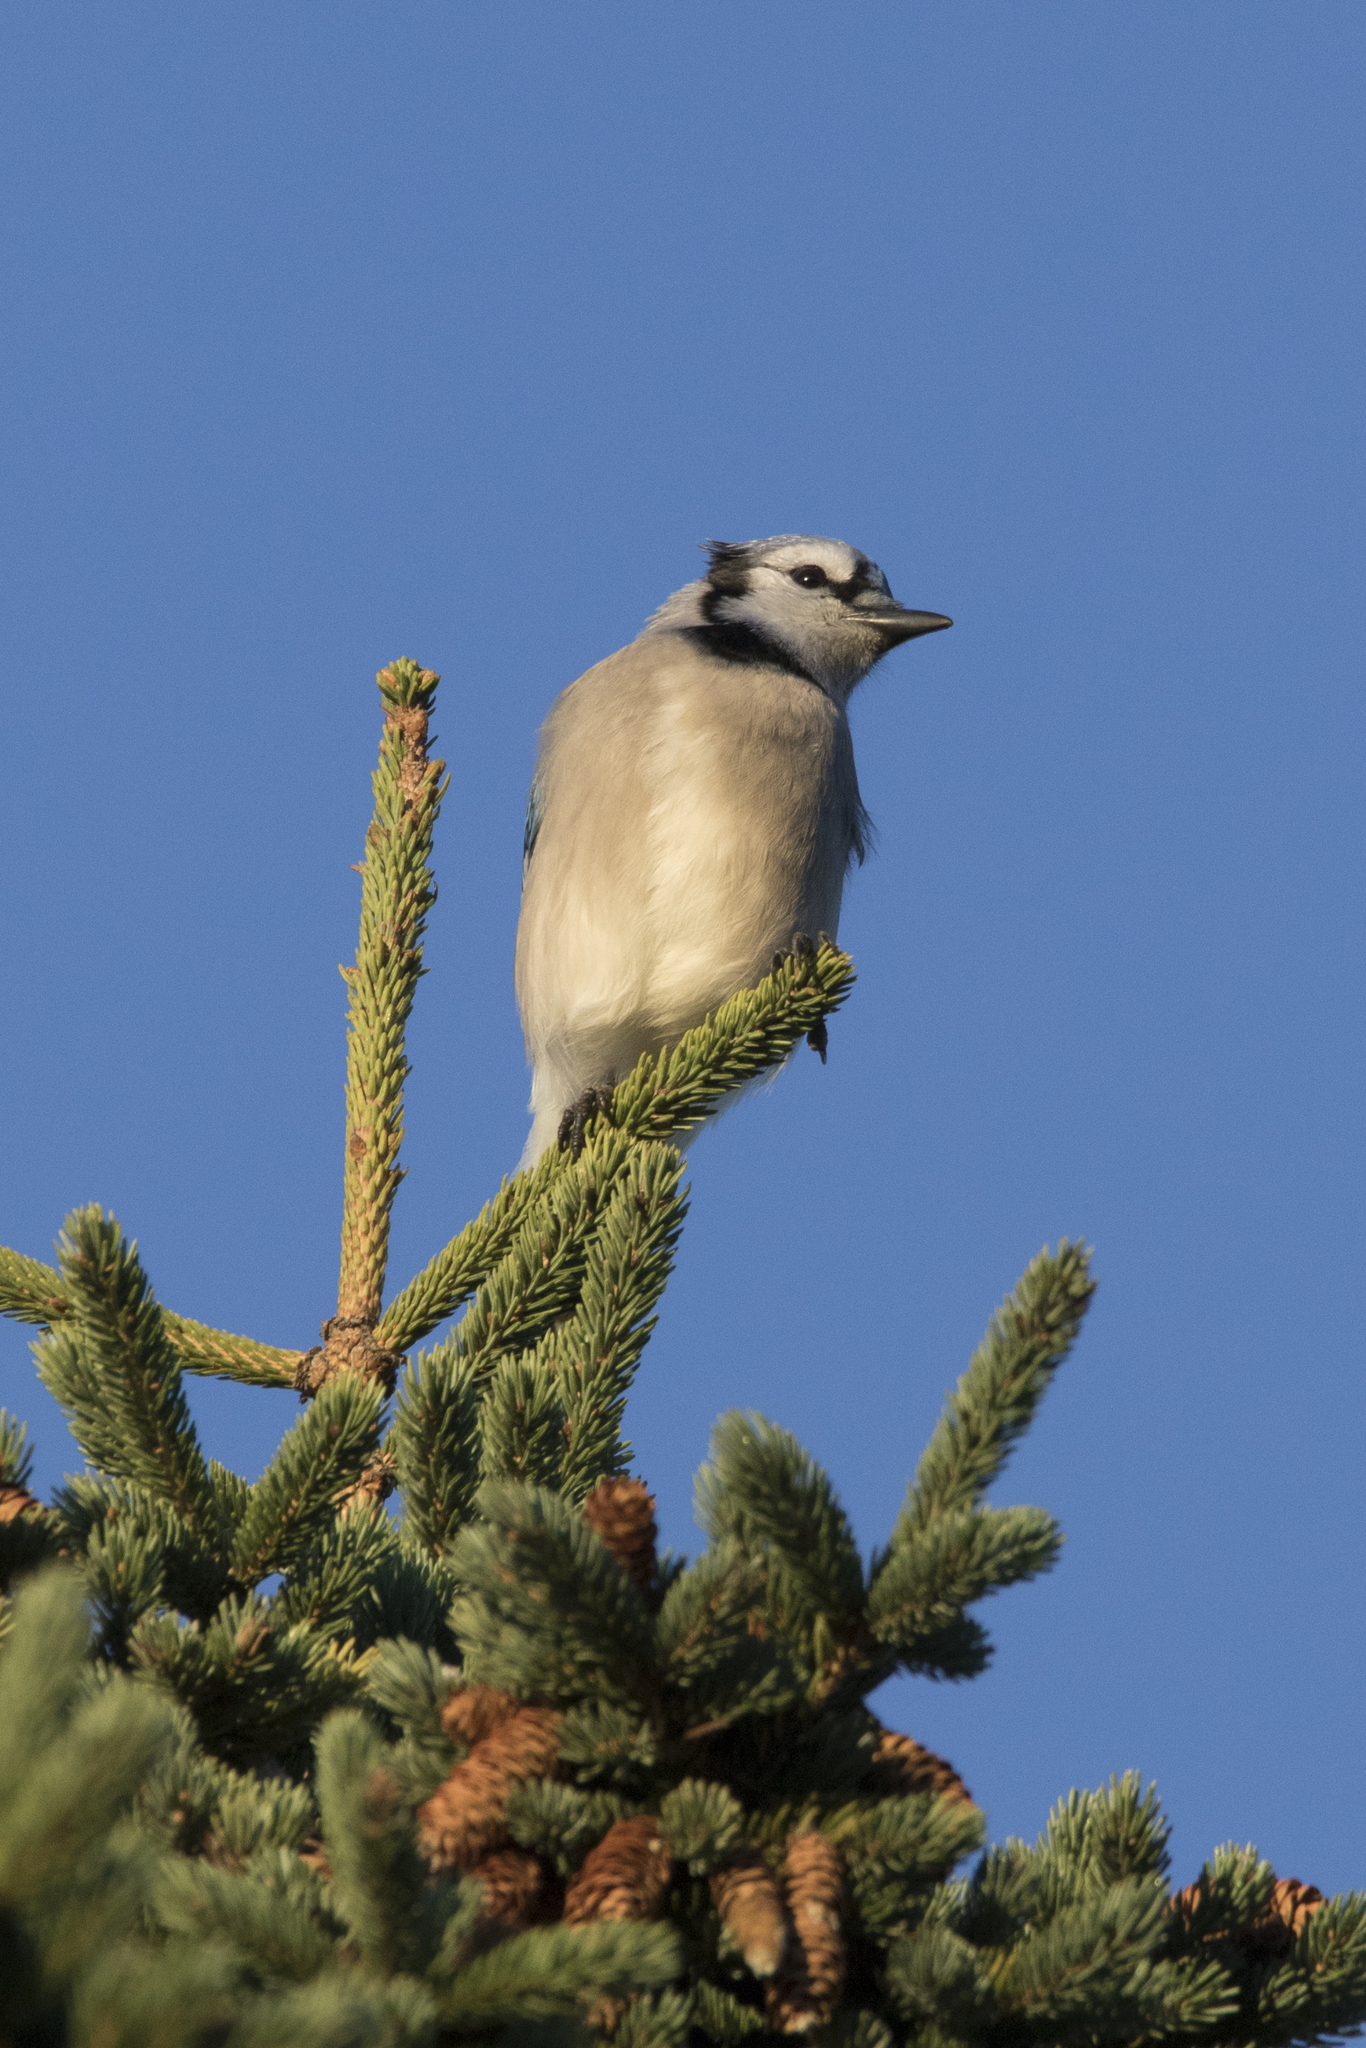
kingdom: Animalia
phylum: Chordata
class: Aves
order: Passeriformes
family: Corvidae
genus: Cyanocitta
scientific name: Cyanocitta cristata
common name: Blue jay
